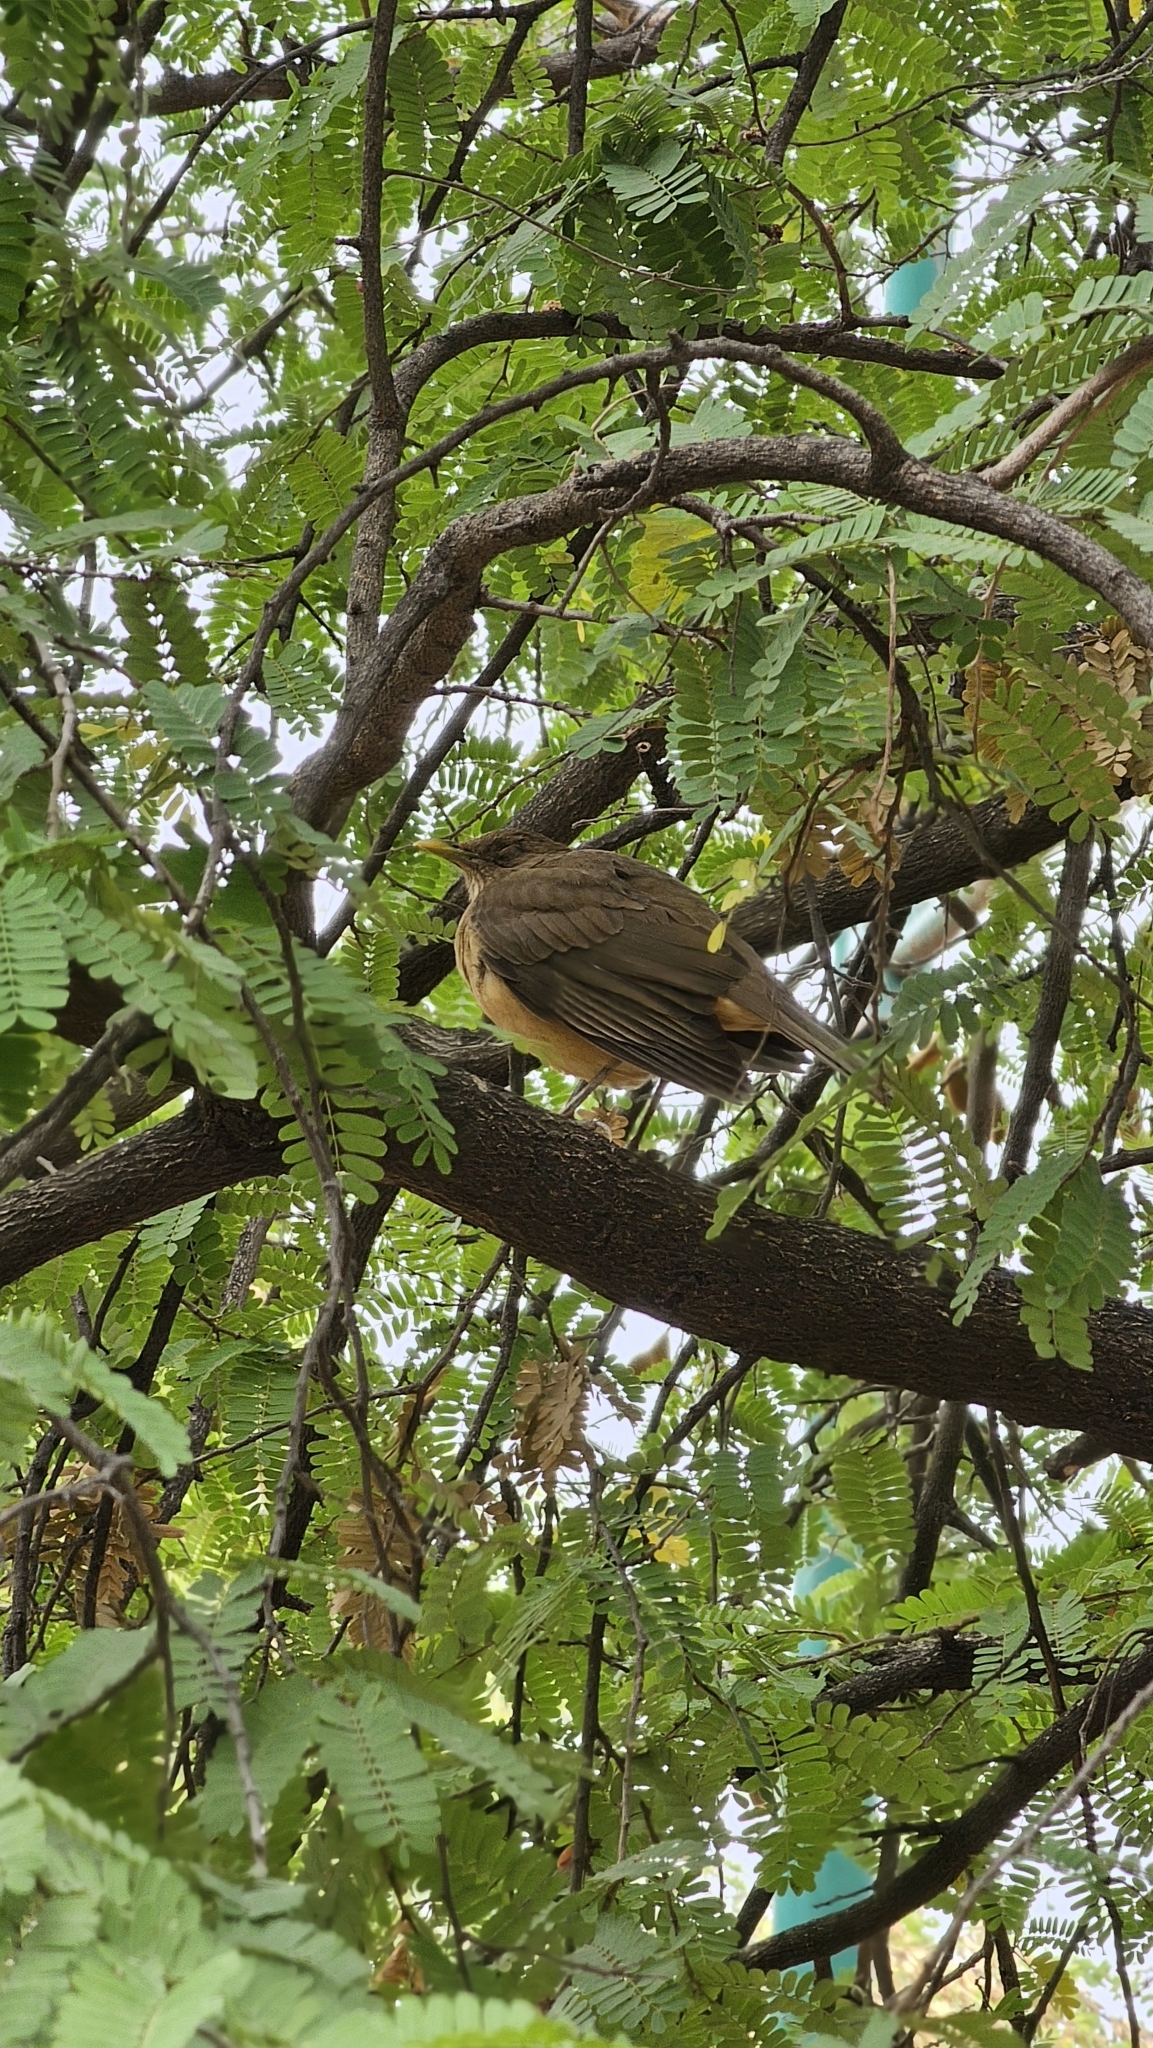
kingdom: Animalia
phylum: Chordata
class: Aves
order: Passeriformes
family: Turdidae
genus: Turdus
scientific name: Turdus grayi
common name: Clay-colored thrush
